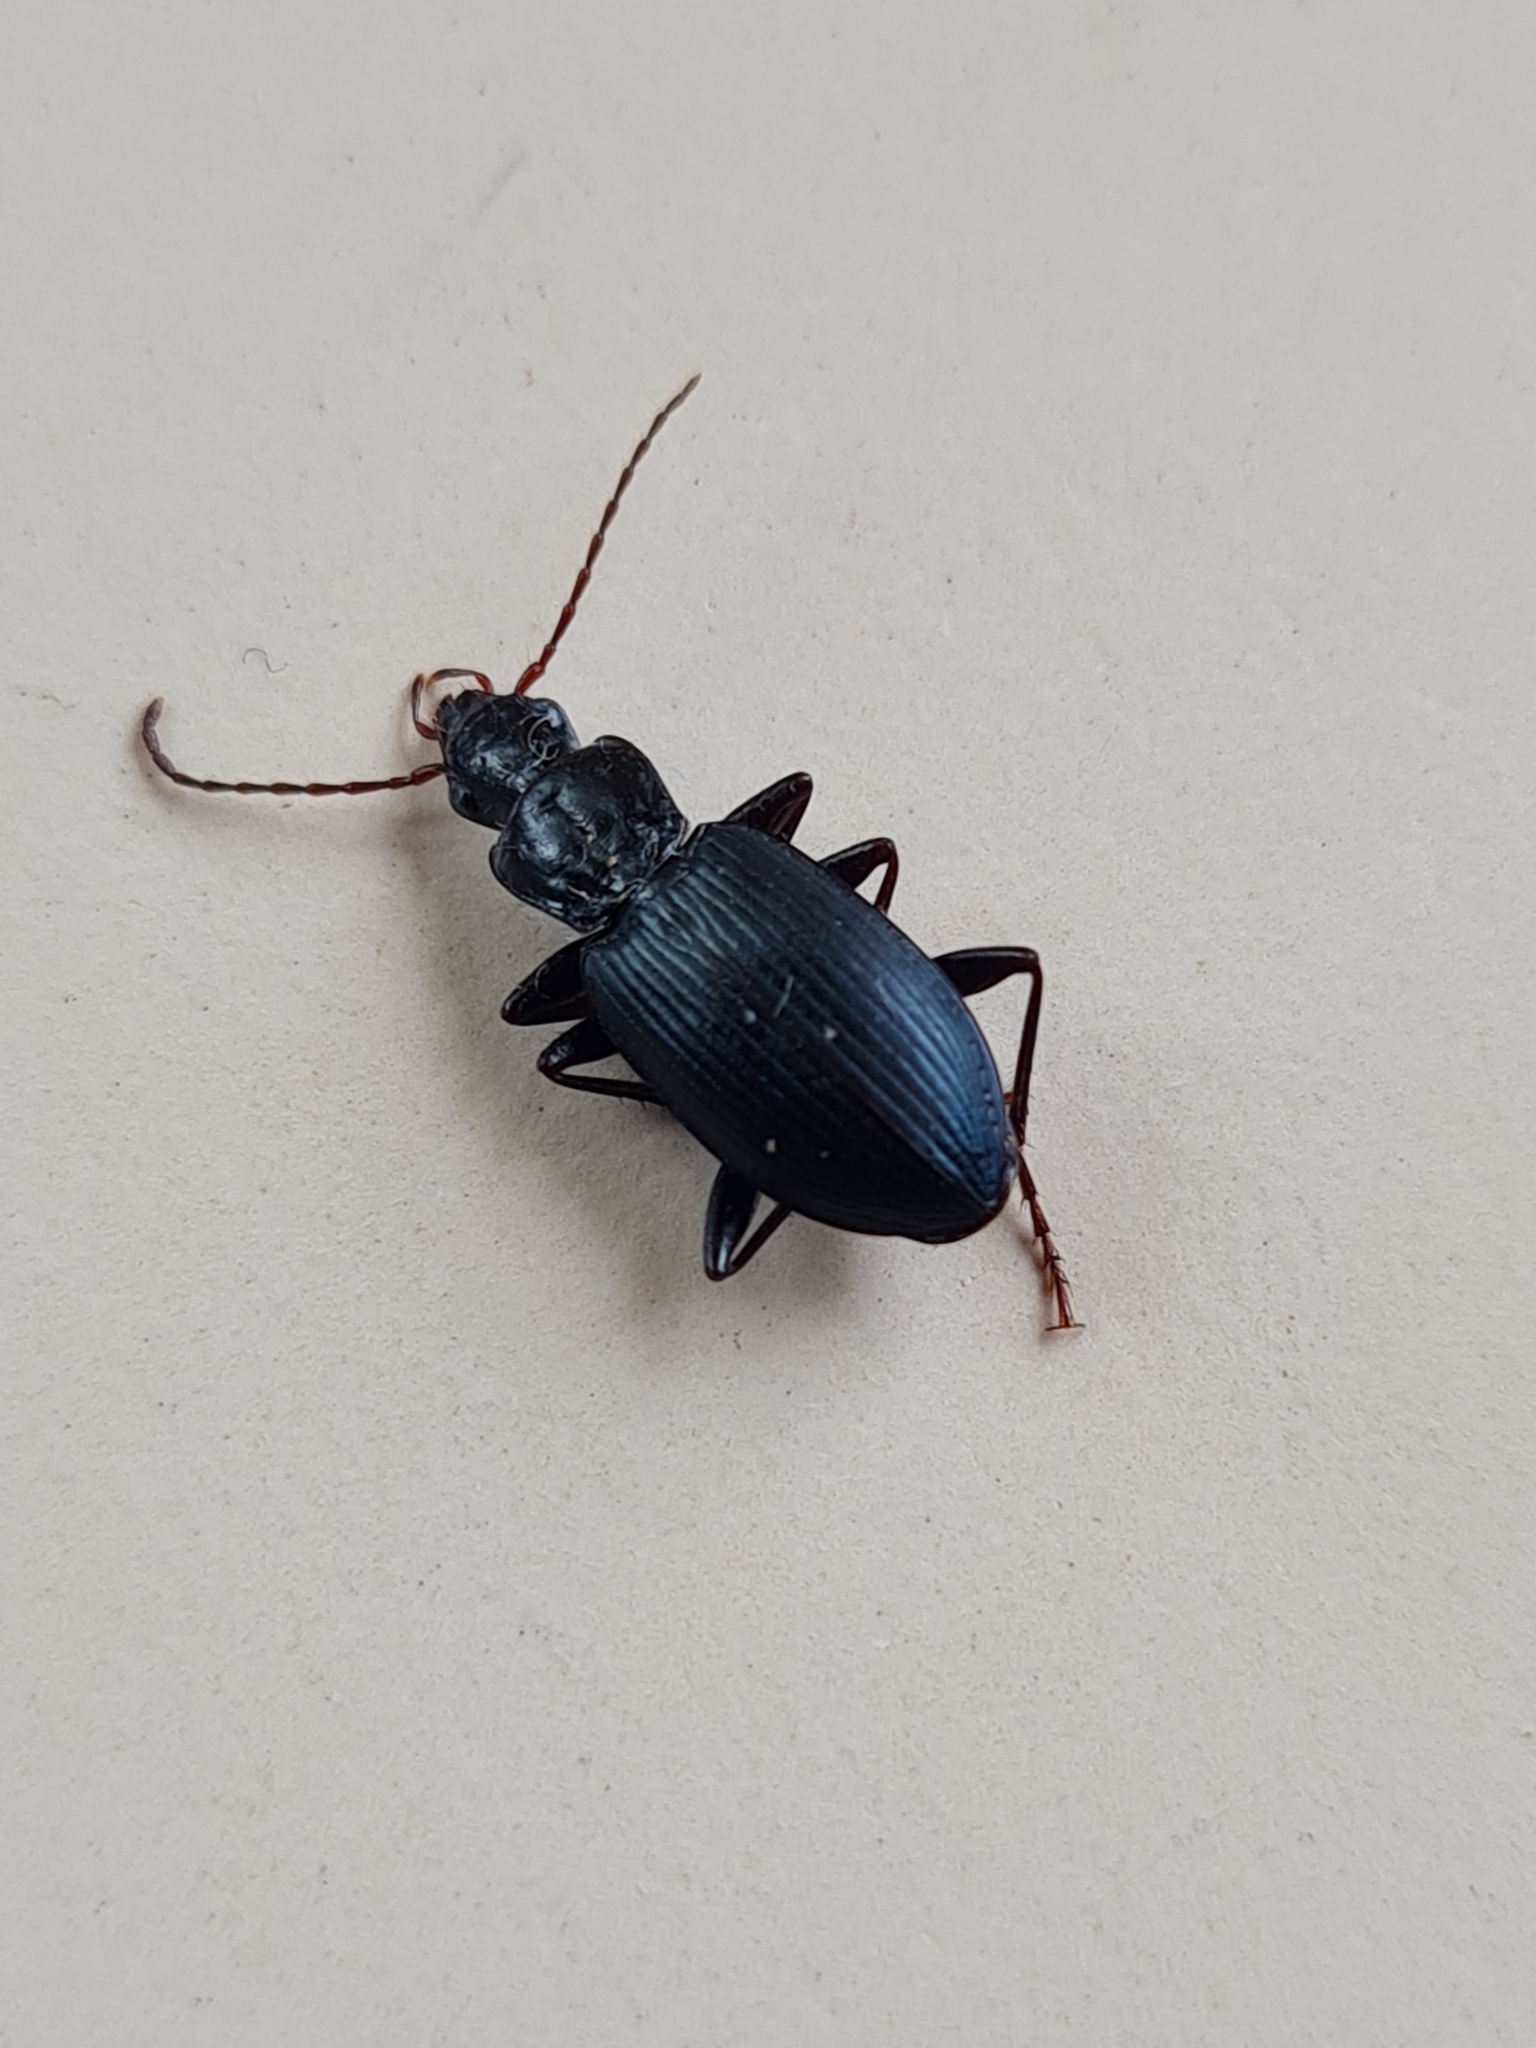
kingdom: Animalia
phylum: Arthropoda
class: Insecta
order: Coleoptera
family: Carabidae
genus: Laemostenus
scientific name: Laemostenus complanatus
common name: Cosmopolitan ground beetle
